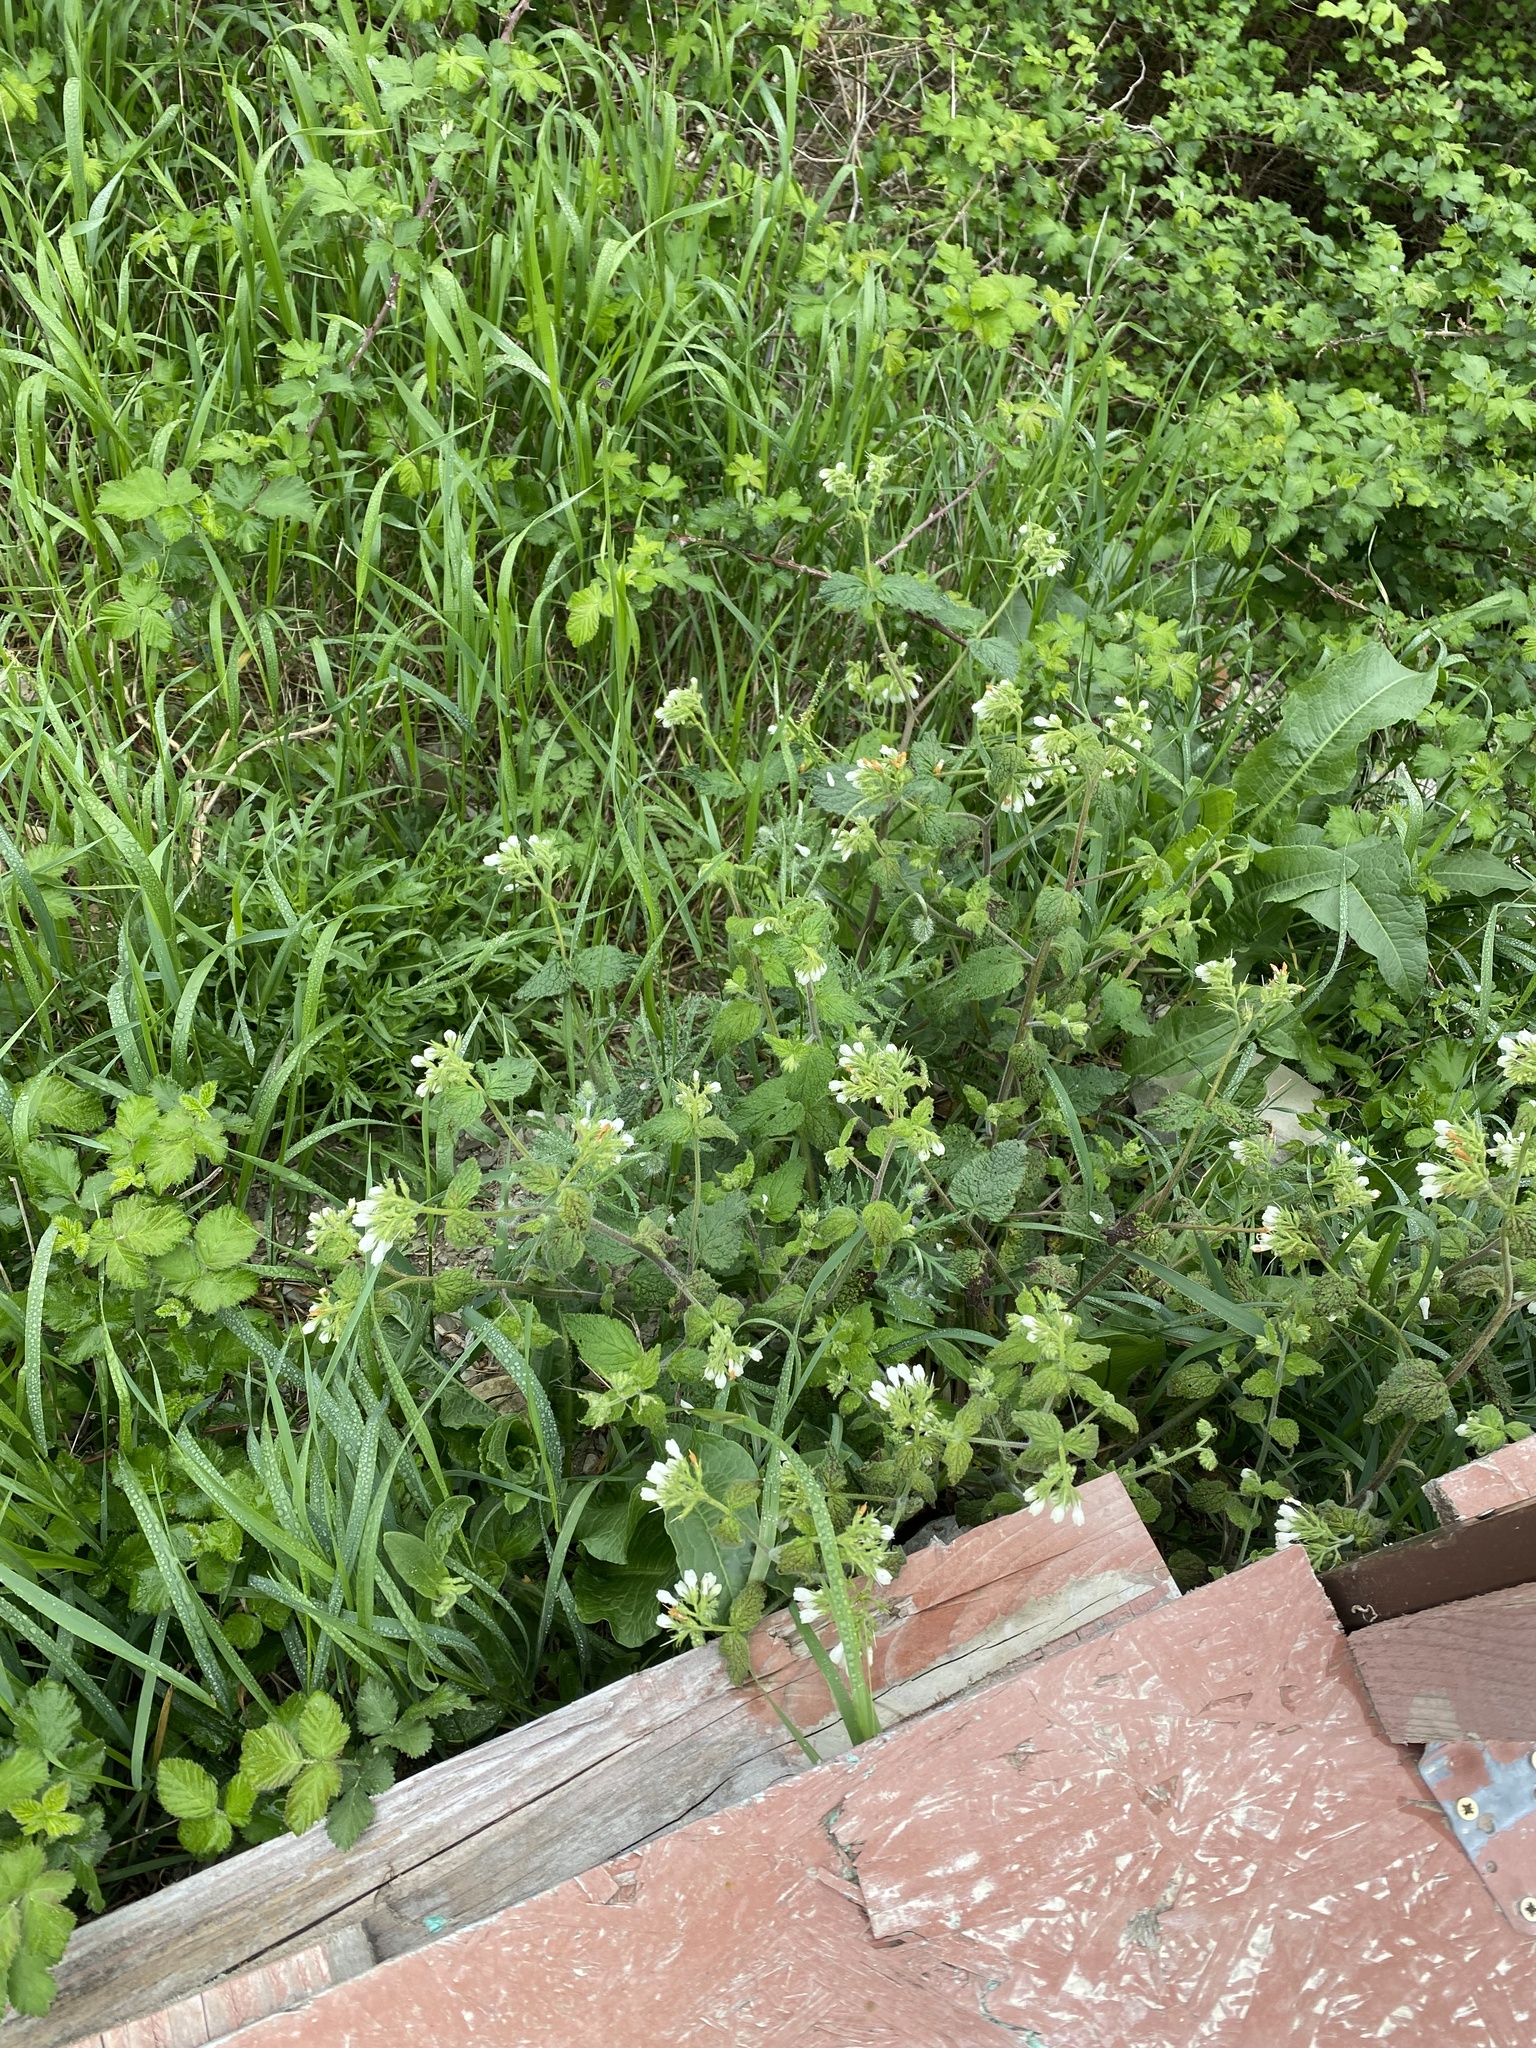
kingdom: Plantae
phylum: Tracheophyta
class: Magnoliopsida
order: Boraginales
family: Boraginaceae
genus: Symphytum
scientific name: Symphytum tauricum
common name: Crimean comfrey
